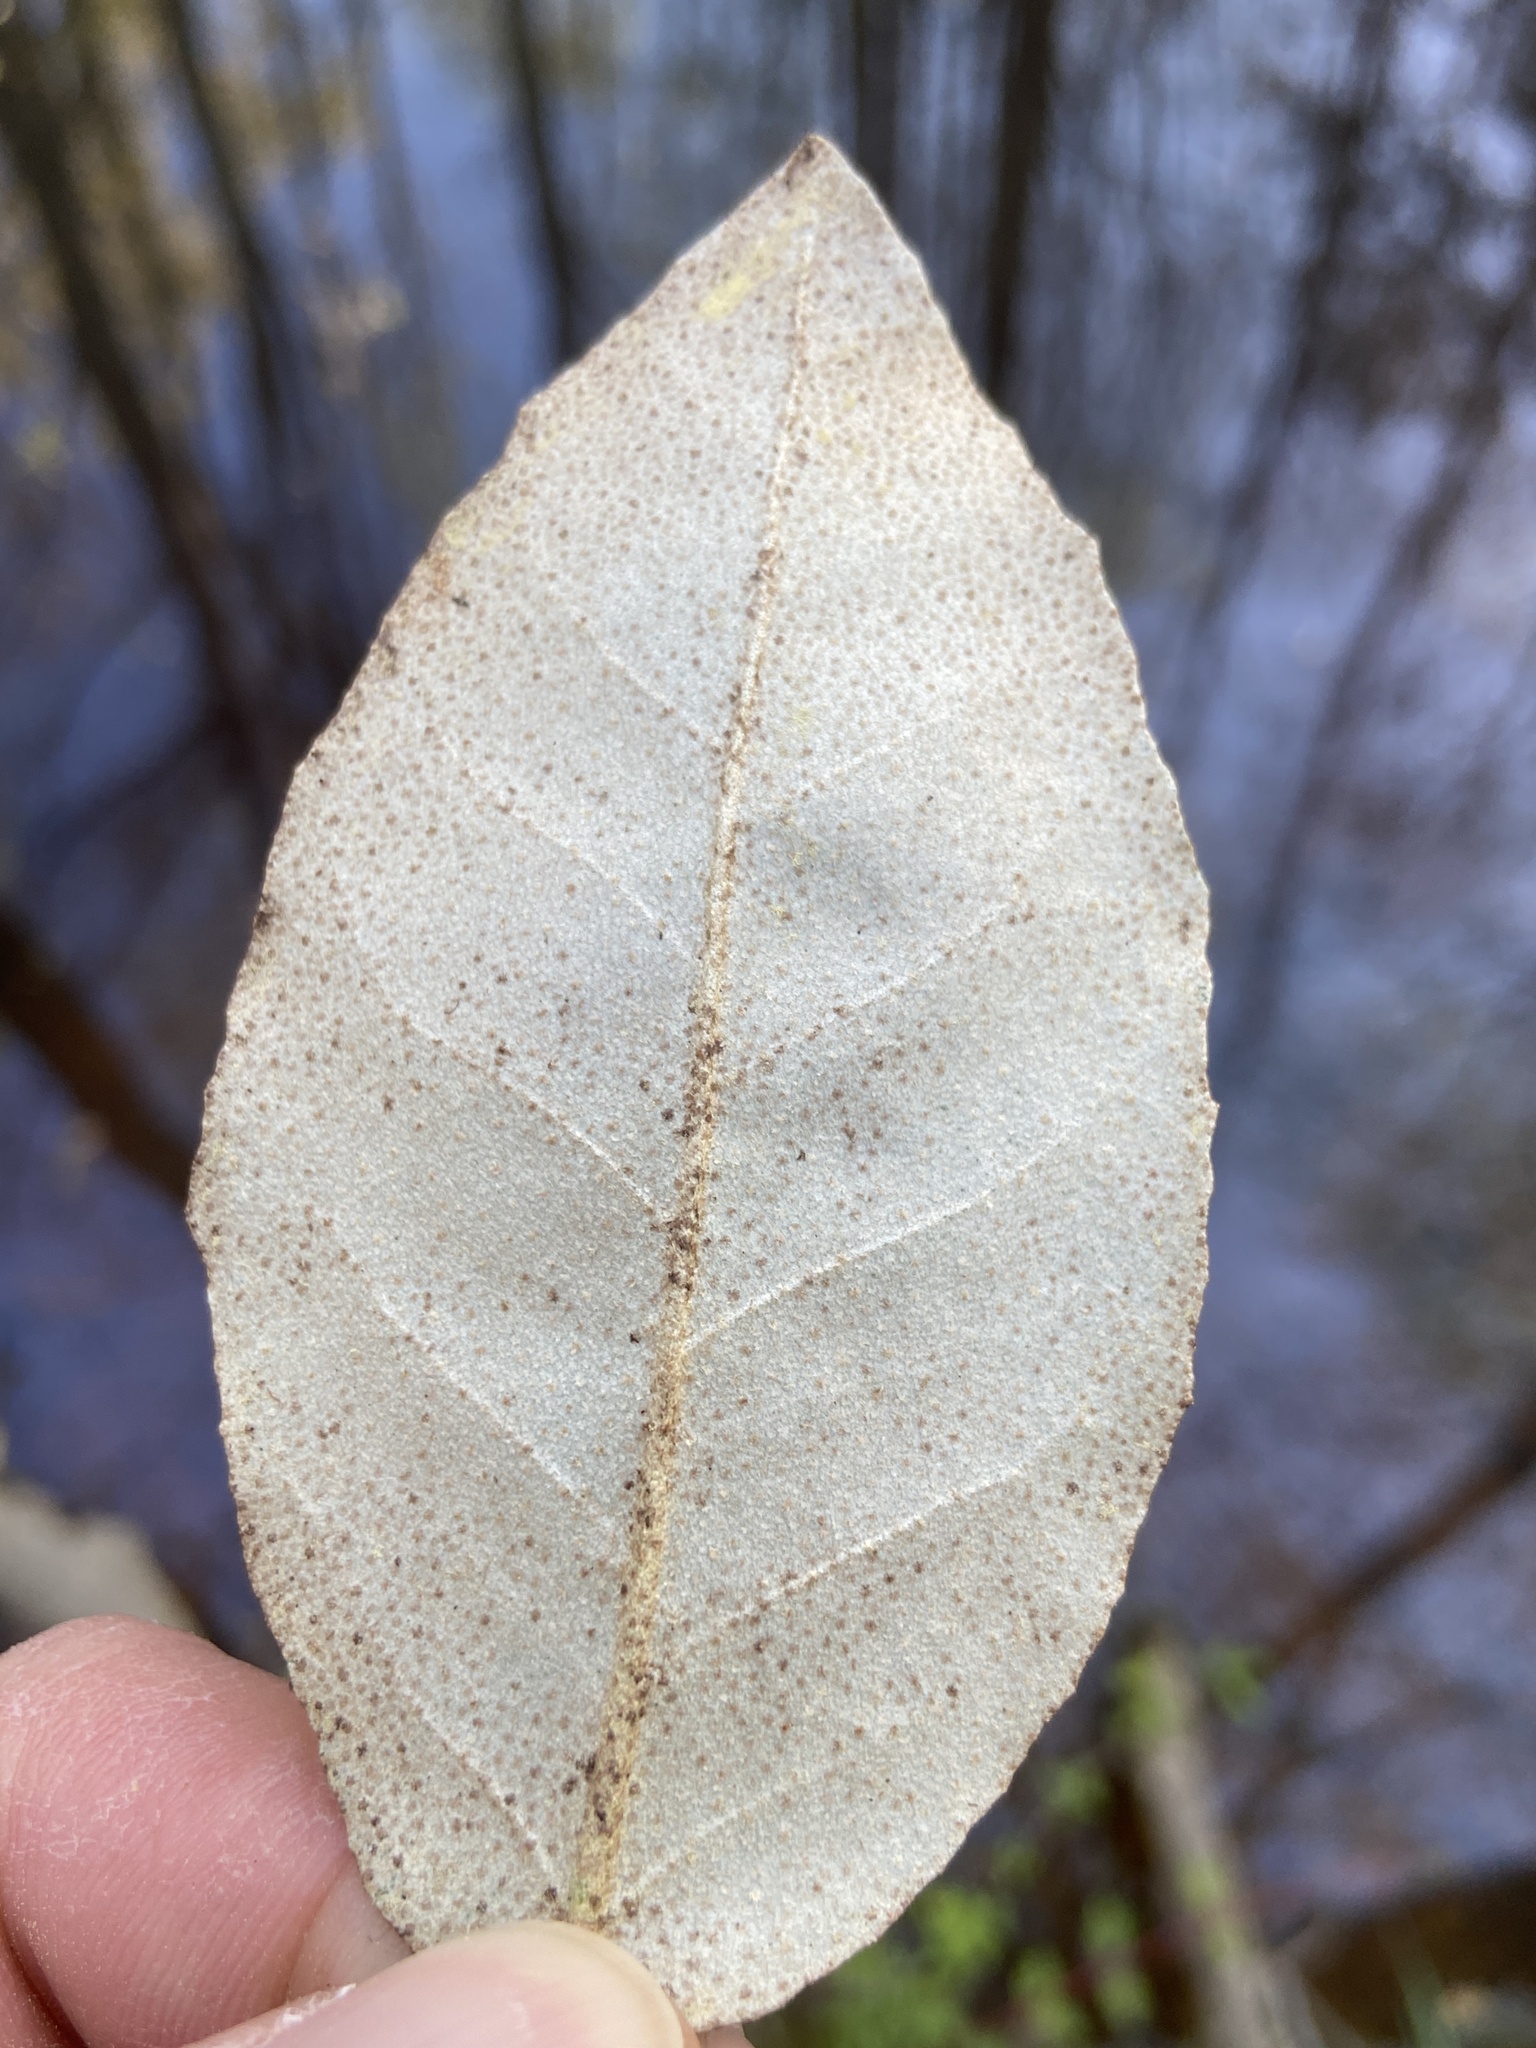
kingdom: Plantae
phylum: Tracheophyta
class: Magnoliopsida
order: Rosales
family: Elaeagnaceae
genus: Elaeagnus
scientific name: Elaeagnus pungens
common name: Spiny oleaster
